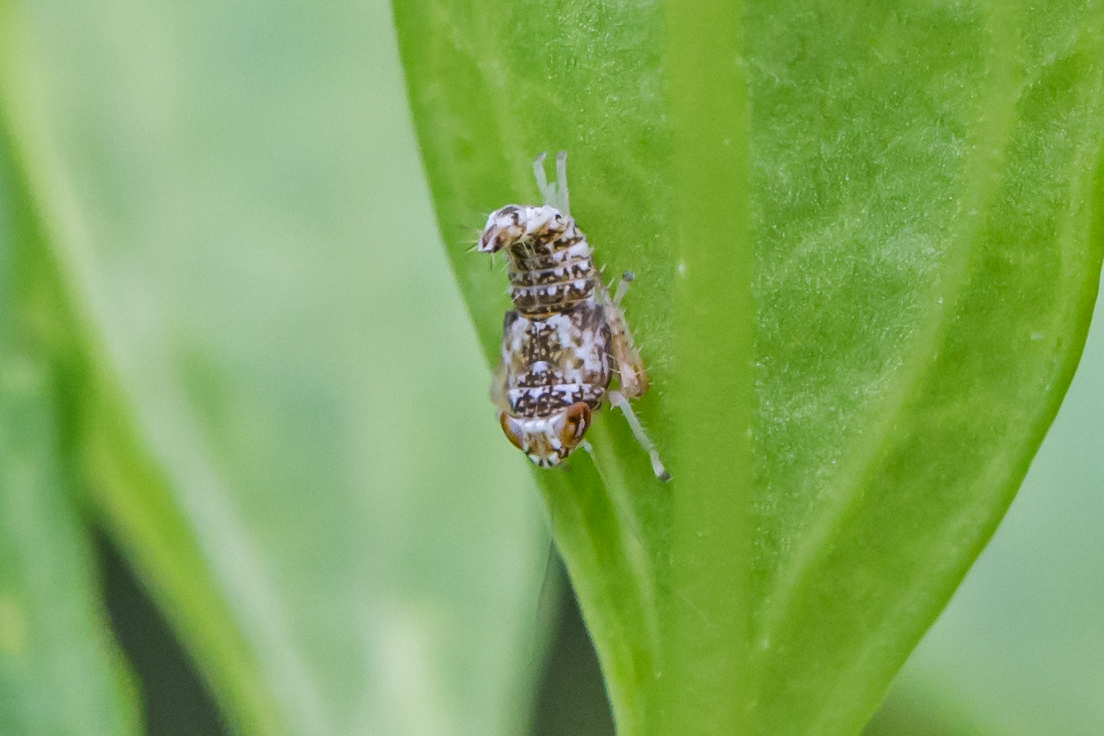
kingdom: Animalia
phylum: Arthropoda
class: Insecta
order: Hemiptera
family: Cicadellidae
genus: Orientus
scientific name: Orientus ishidae
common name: Japanese leafhopper
